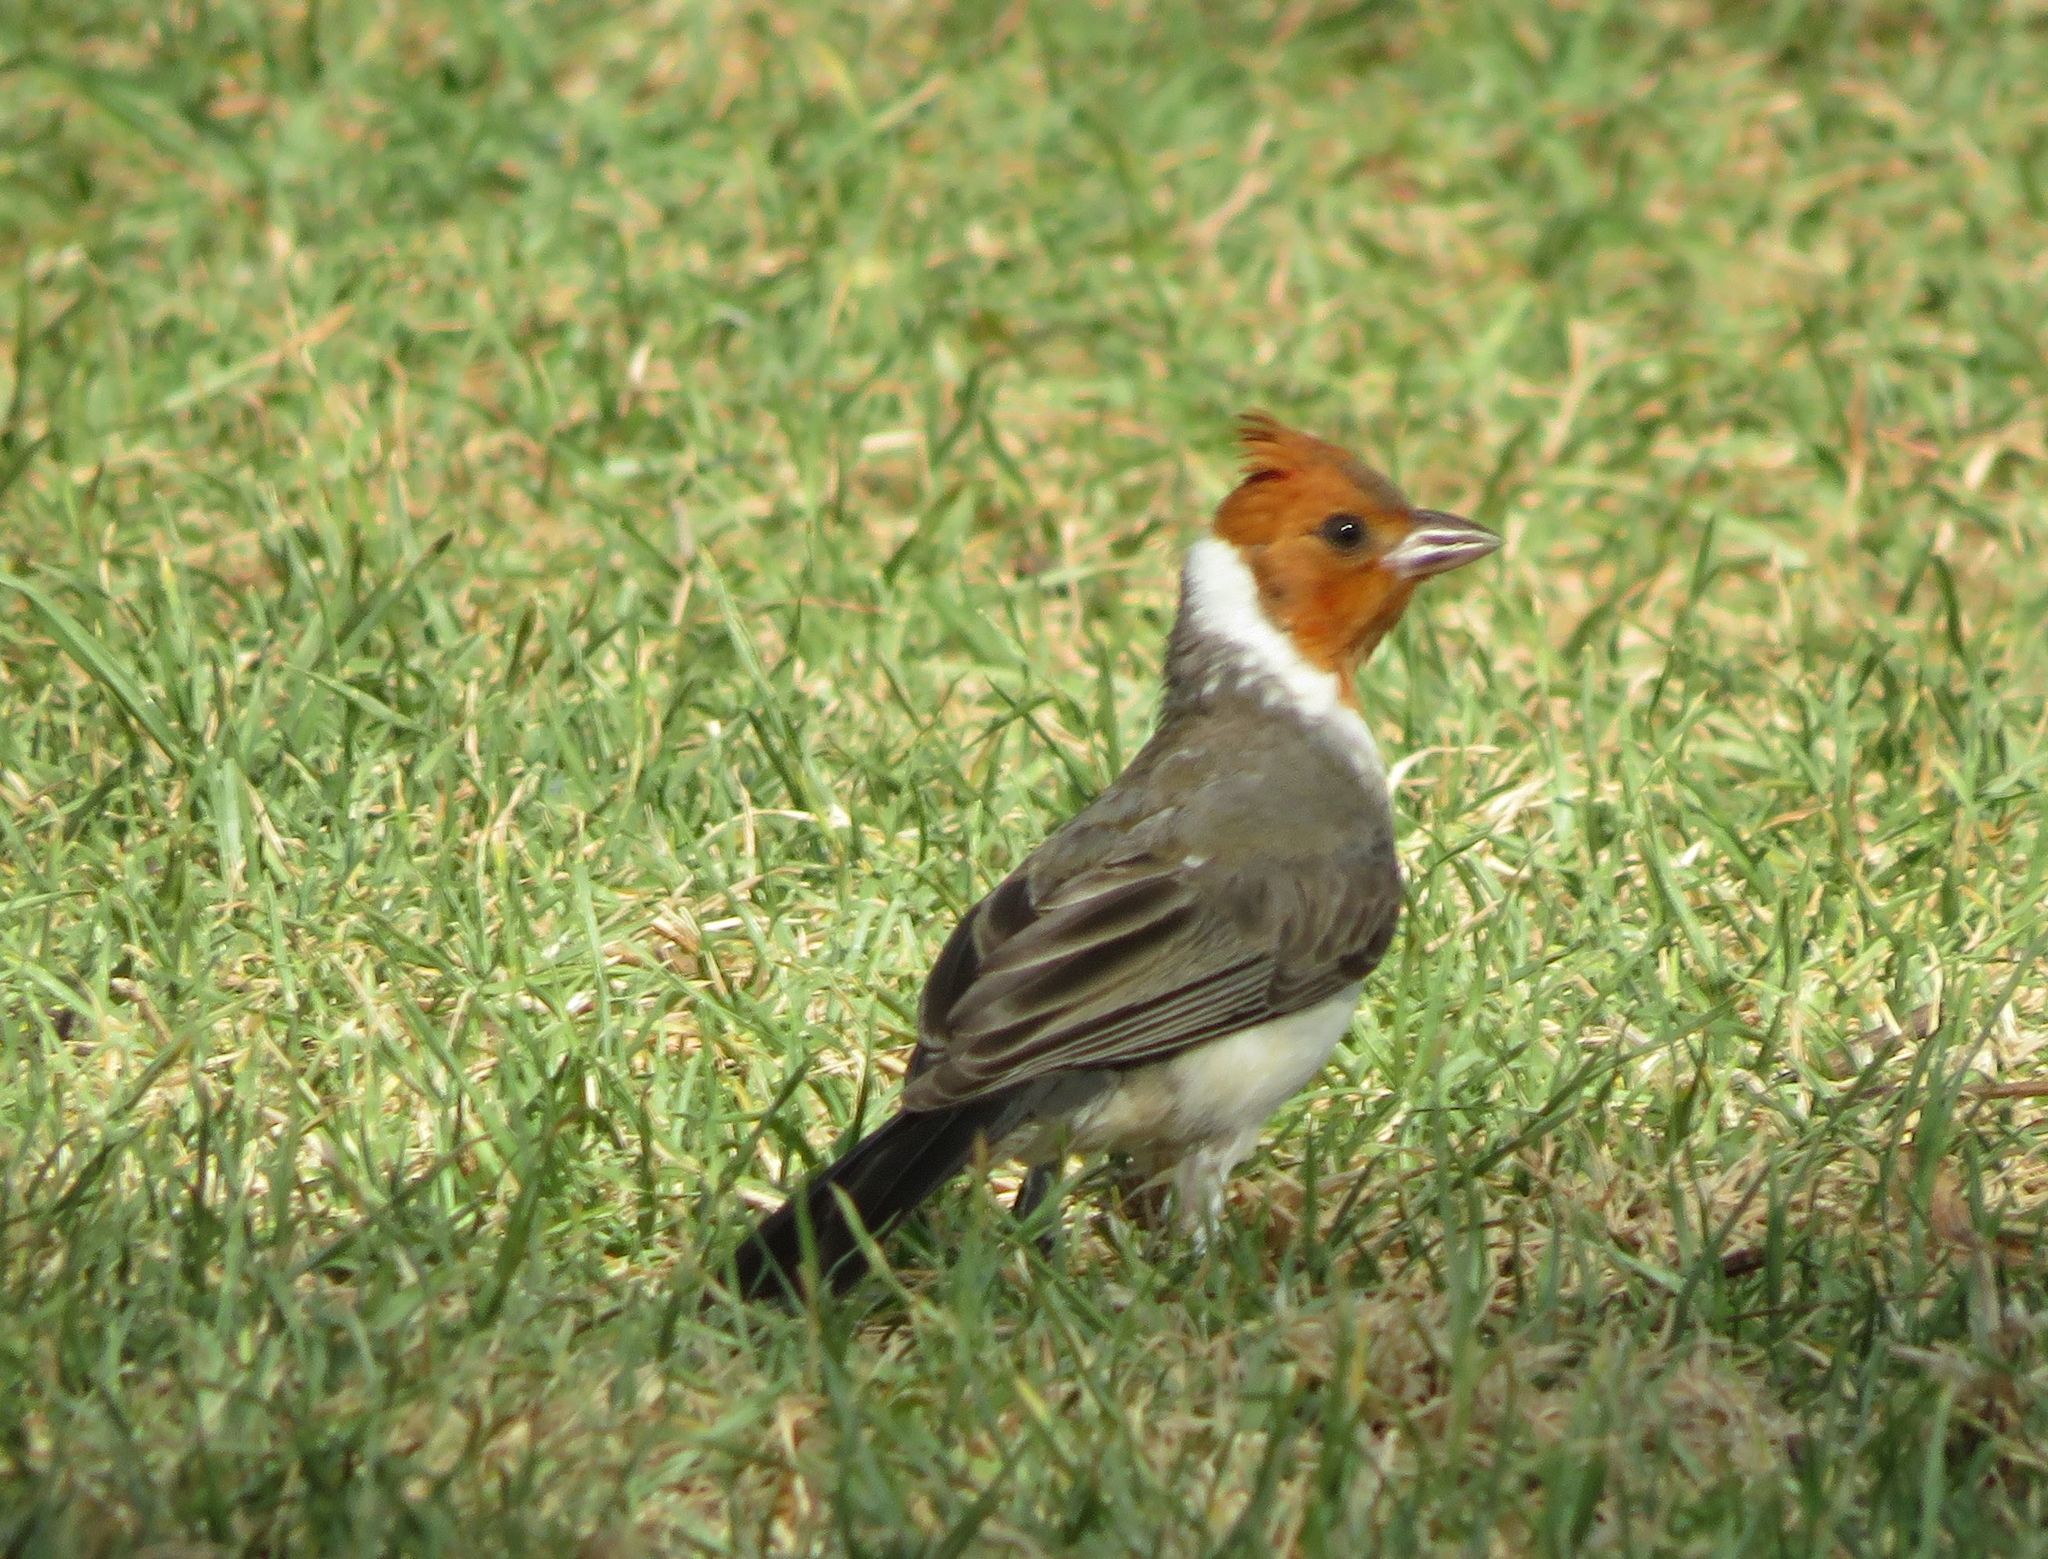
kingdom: Animalia
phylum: Chordata
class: Aves
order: Passeriformes
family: Thraupidae
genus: Paroaria
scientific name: Paroaria coronata
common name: Red-crested cardinal
